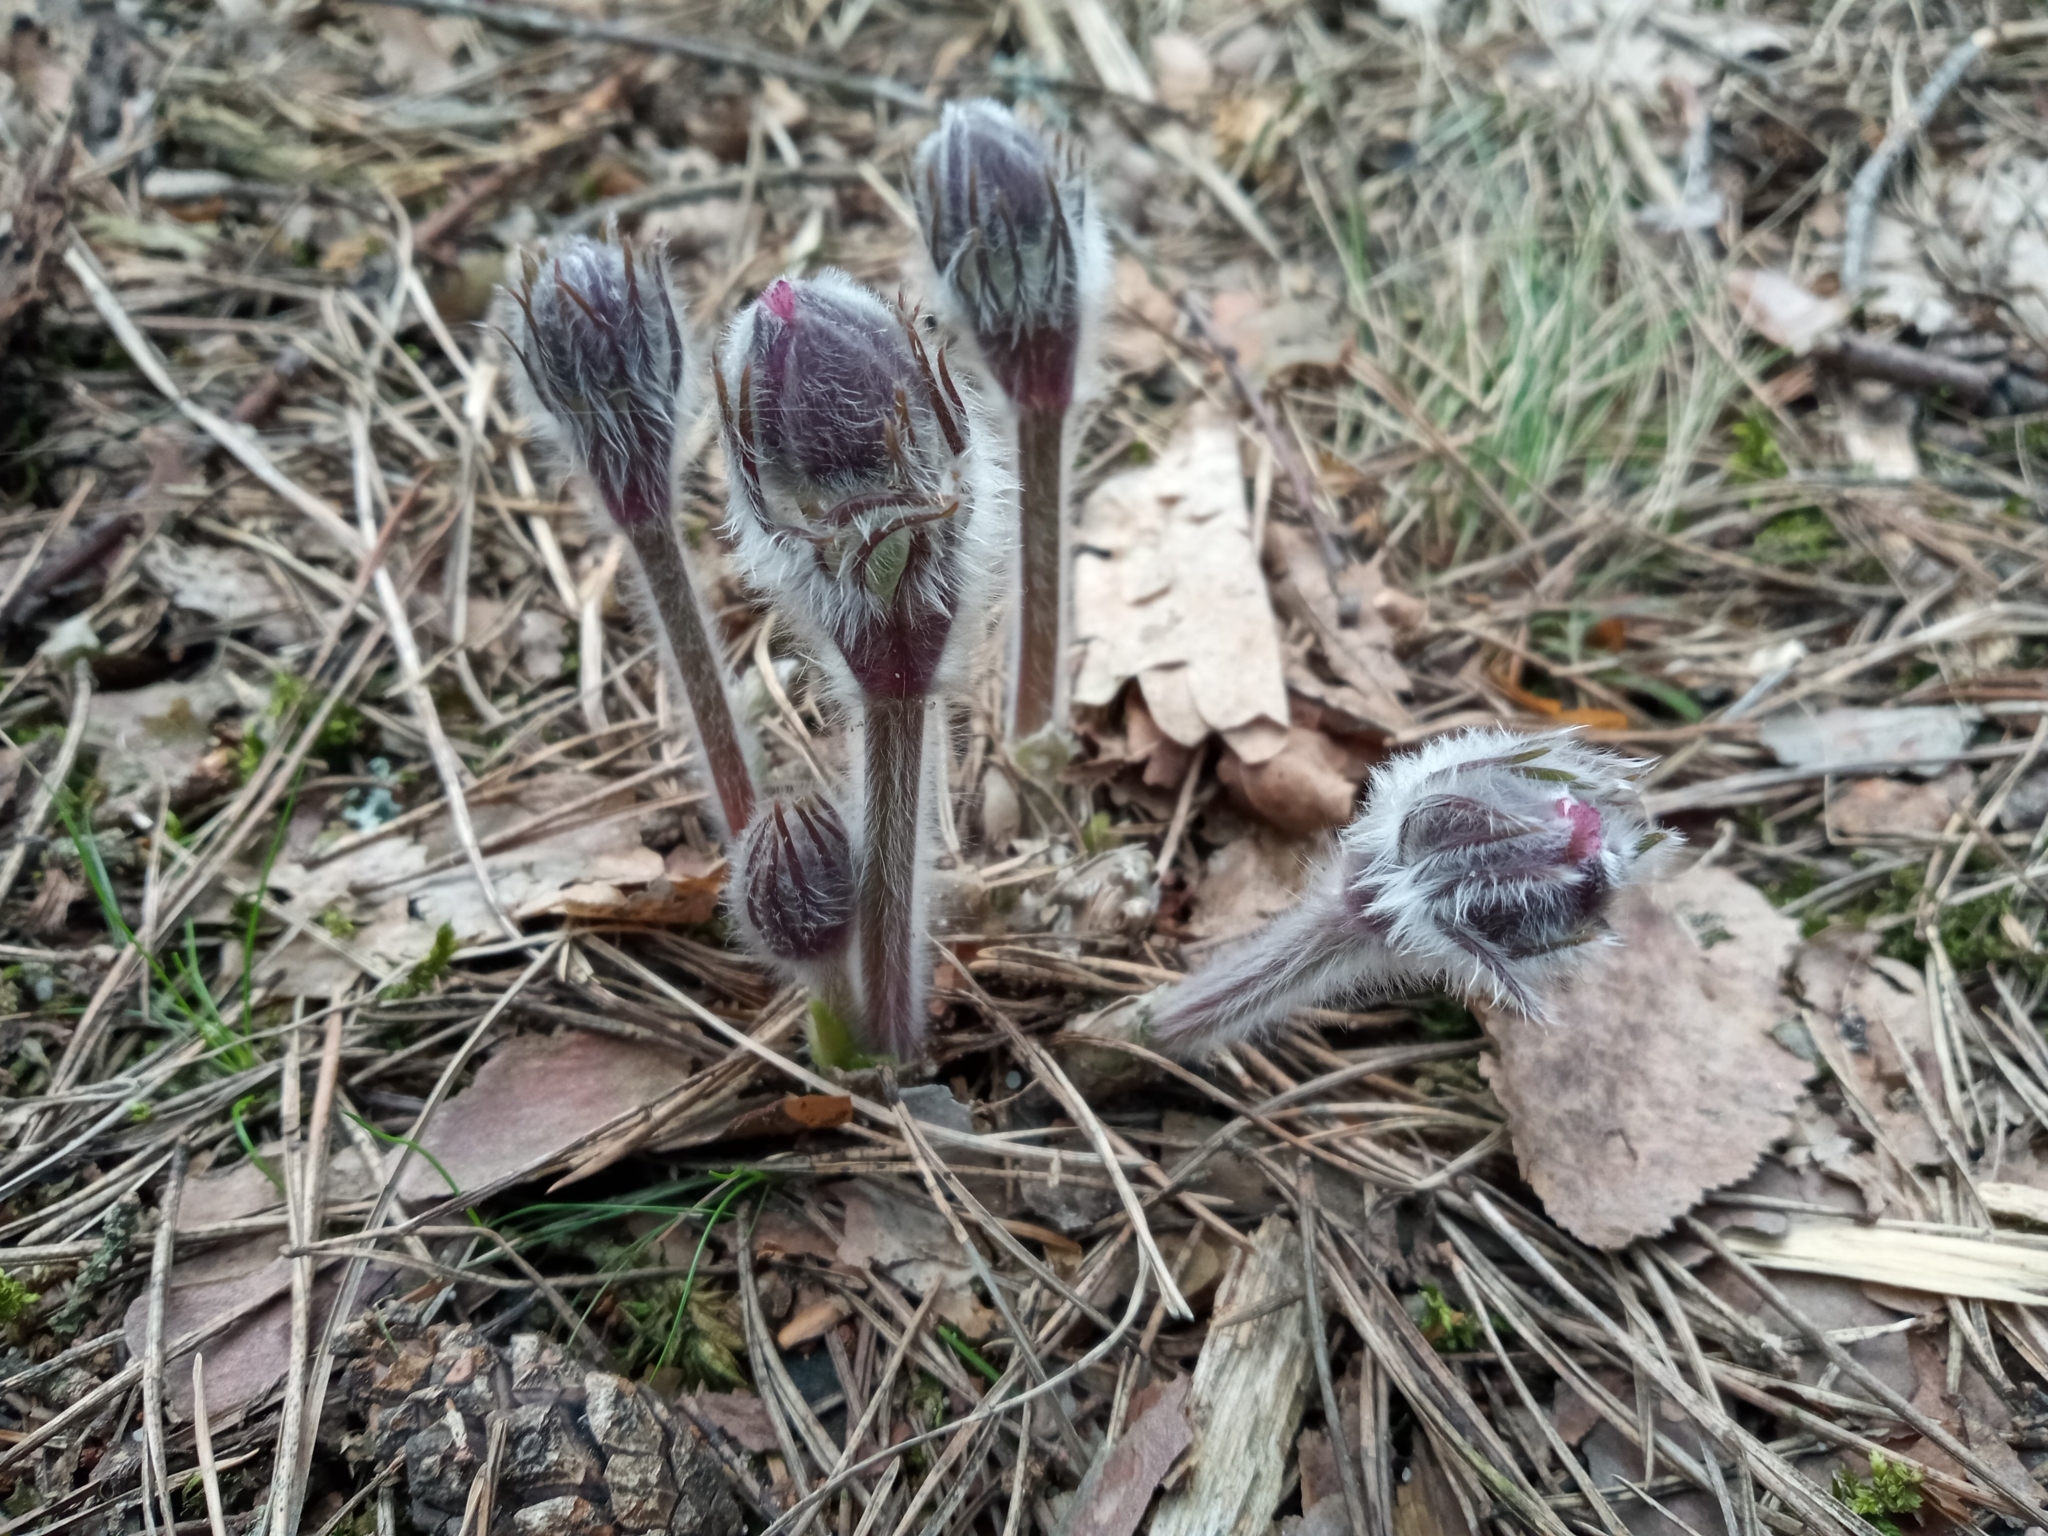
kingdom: Plantae
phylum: Tracheophyta
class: Magnoliopsida
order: Ranunculales
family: Ranunculaceae
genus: Pulsatilla
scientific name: Pulsatilla patens
